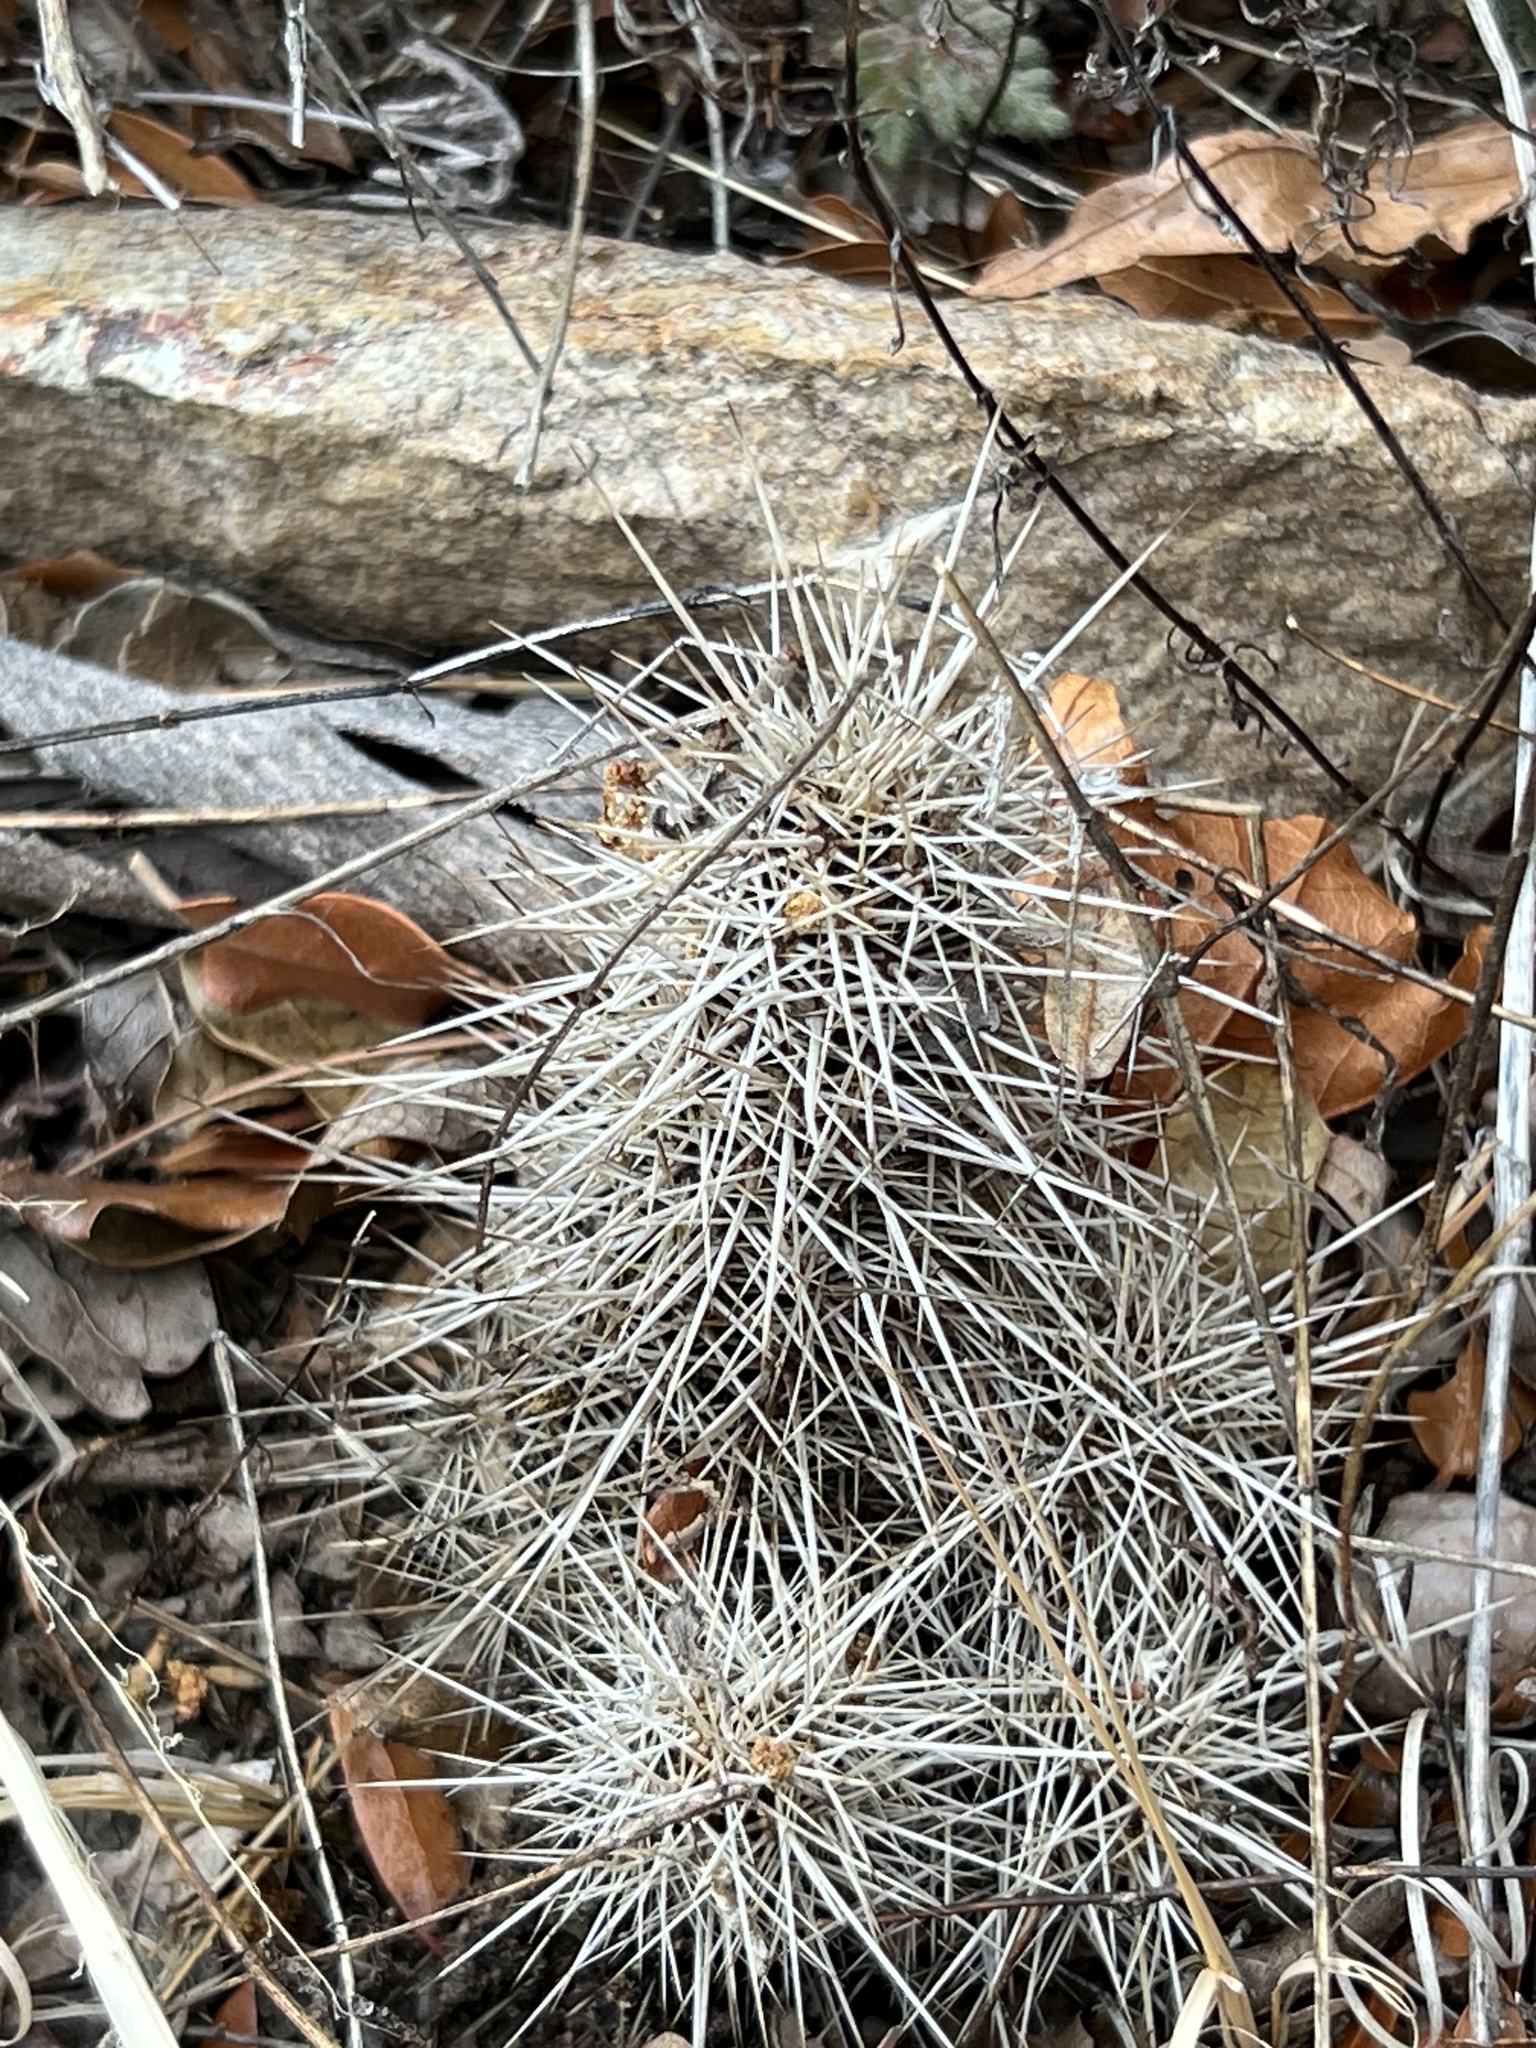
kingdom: Plantae
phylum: Tracheophyta
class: Magnoliopsida
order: Caryophyllales
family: Cactaceae
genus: Echinocereus
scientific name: Echinocereus coccineus
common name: Scarlet hedgehog cactus
